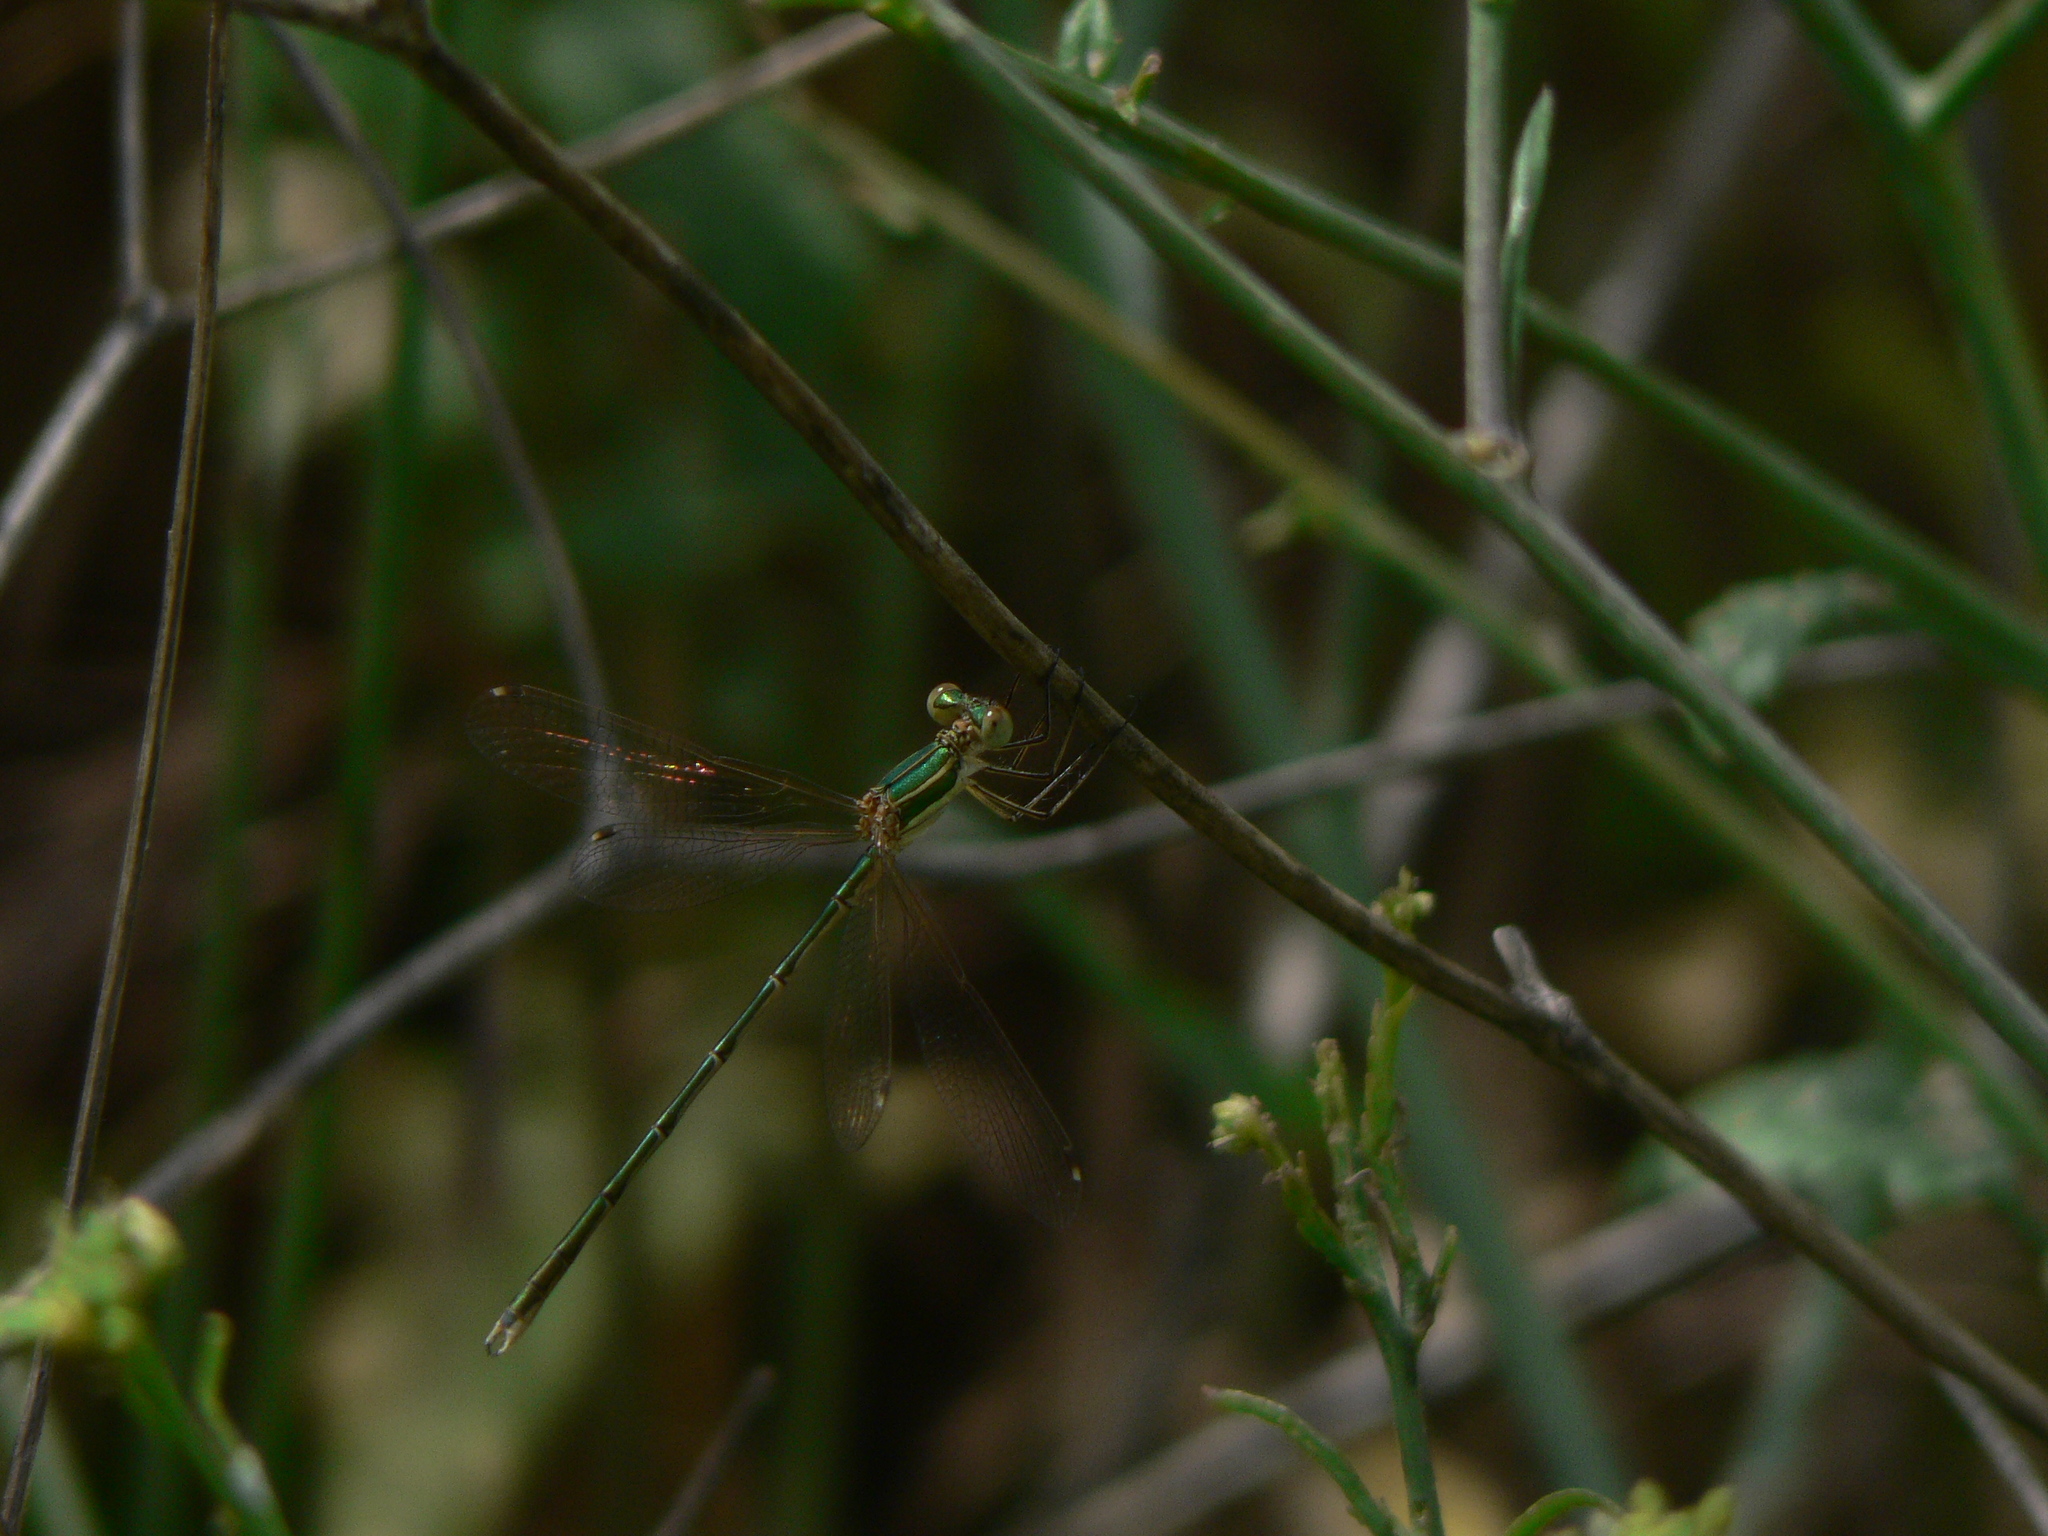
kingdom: Animalia
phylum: Arthropoda
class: Insecta
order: Odonata
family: Lestidae
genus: Lestes
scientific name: Lestes barbarus
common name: Migrant spreadwing
